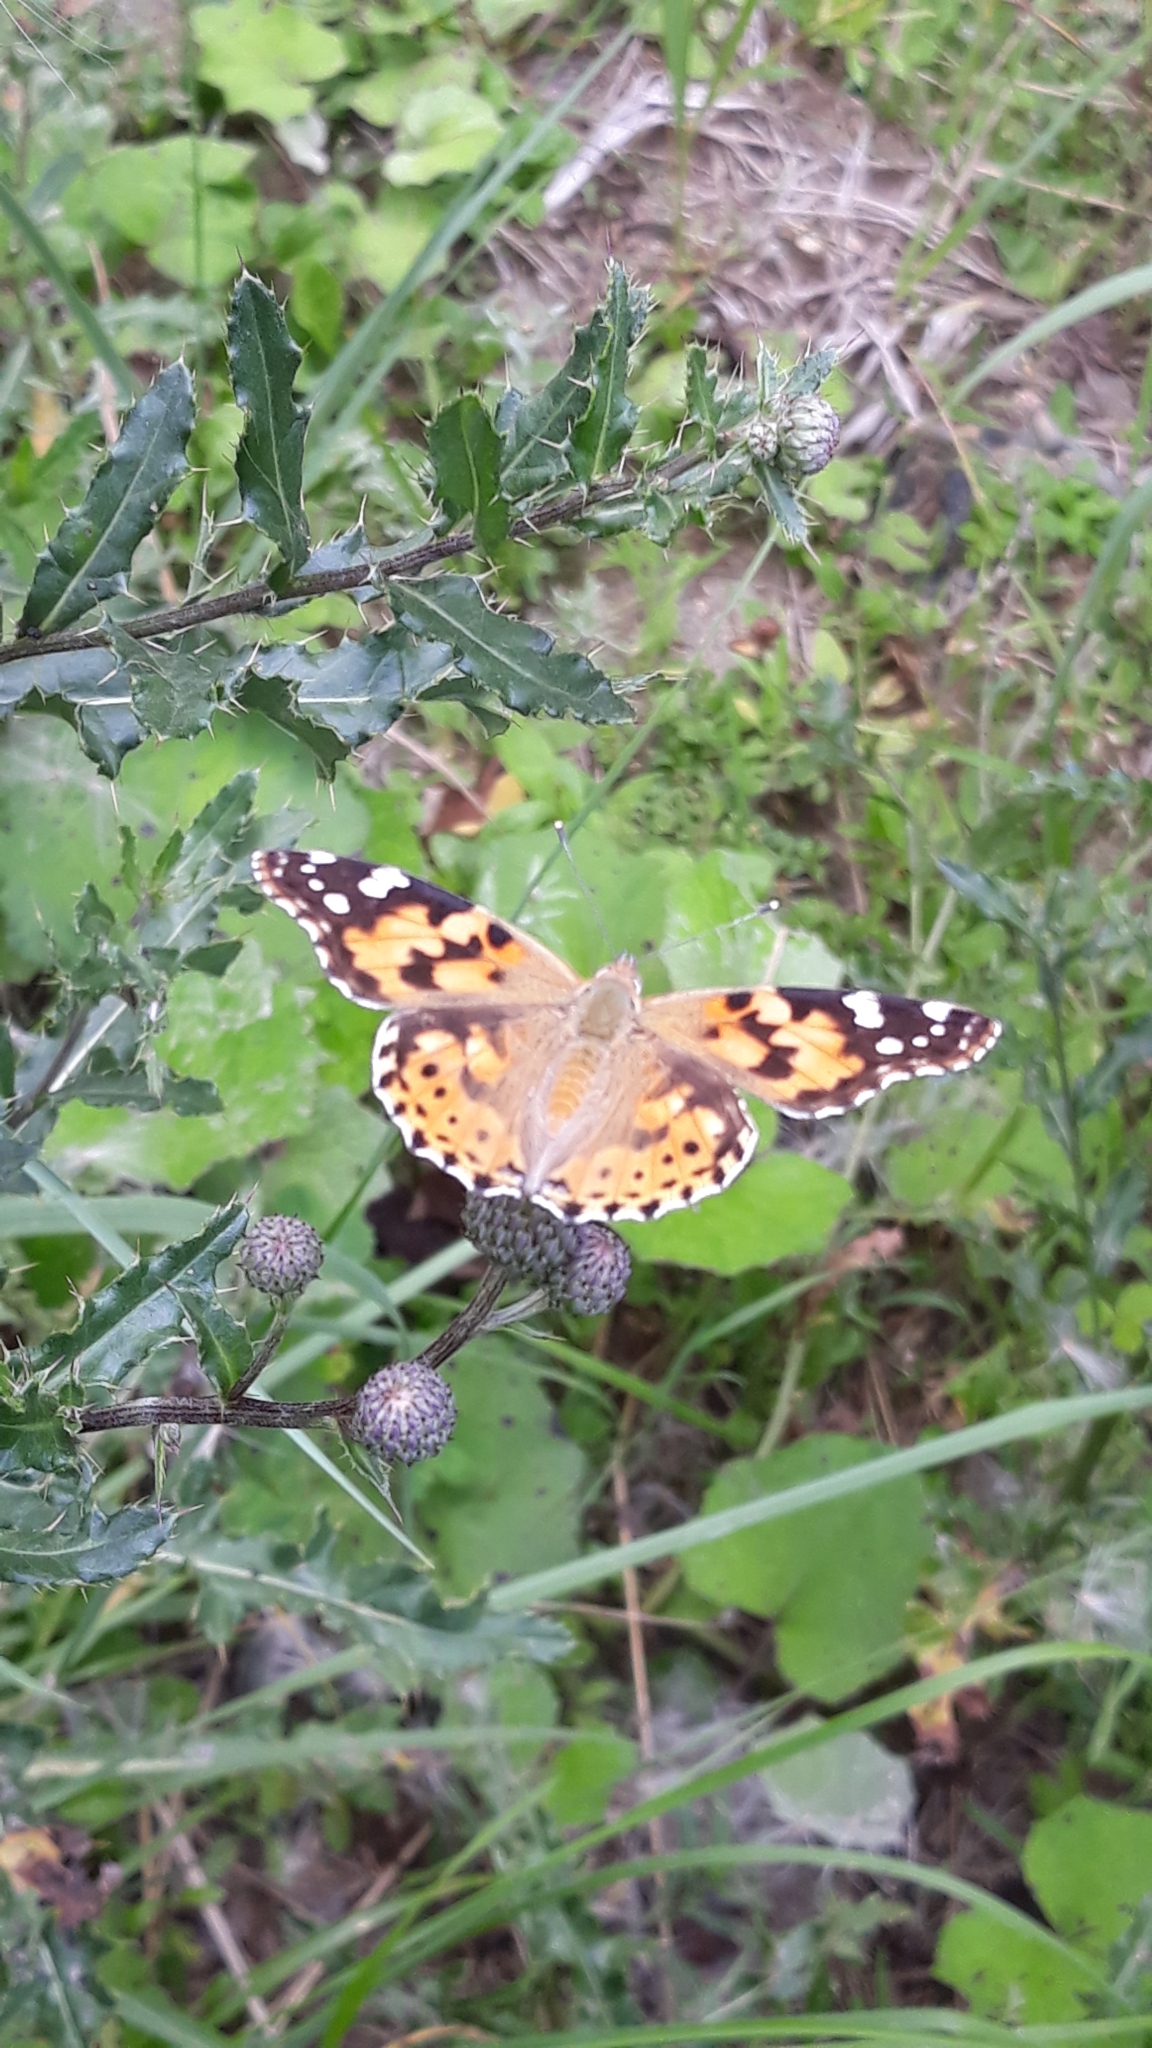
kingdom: Animalia
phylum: Arthropoda
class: Insecta
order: Lepidoptera
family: Nymphalidae
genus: Vanessa
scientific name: Vanessa cardui
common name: Painted lady
